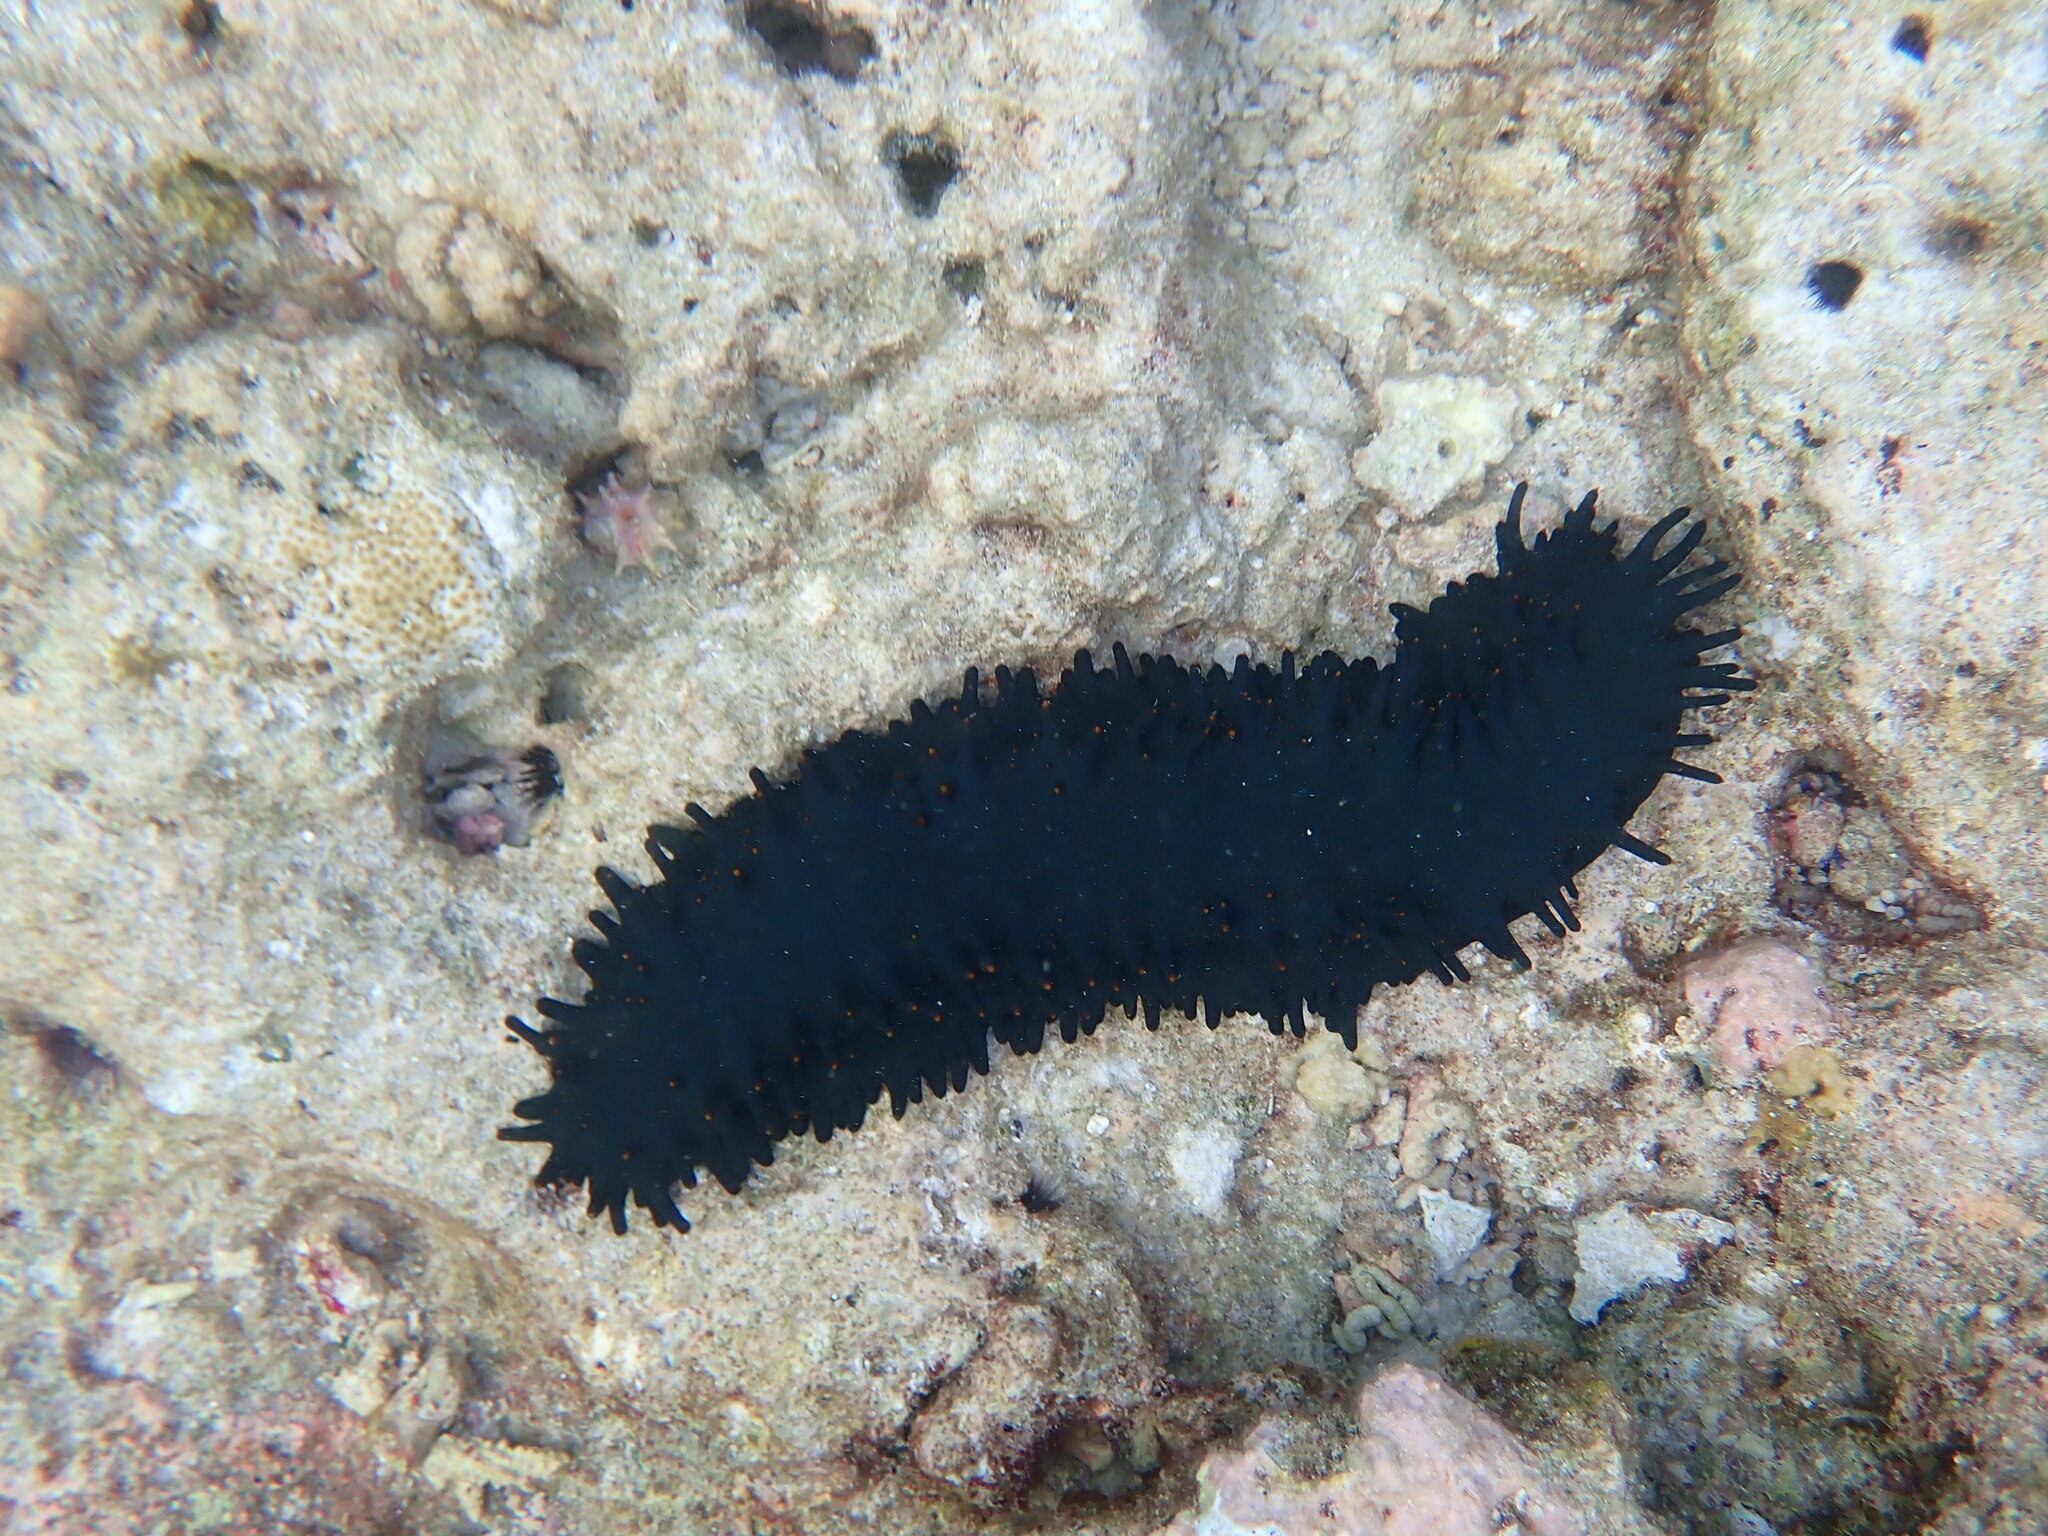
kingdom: Animalia
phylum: Echinodermata
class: Holothuroidea
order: Synallactida
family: Stichopodidae
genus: Stichopus
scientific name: Stichopus chloronotus
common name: Greenfish
